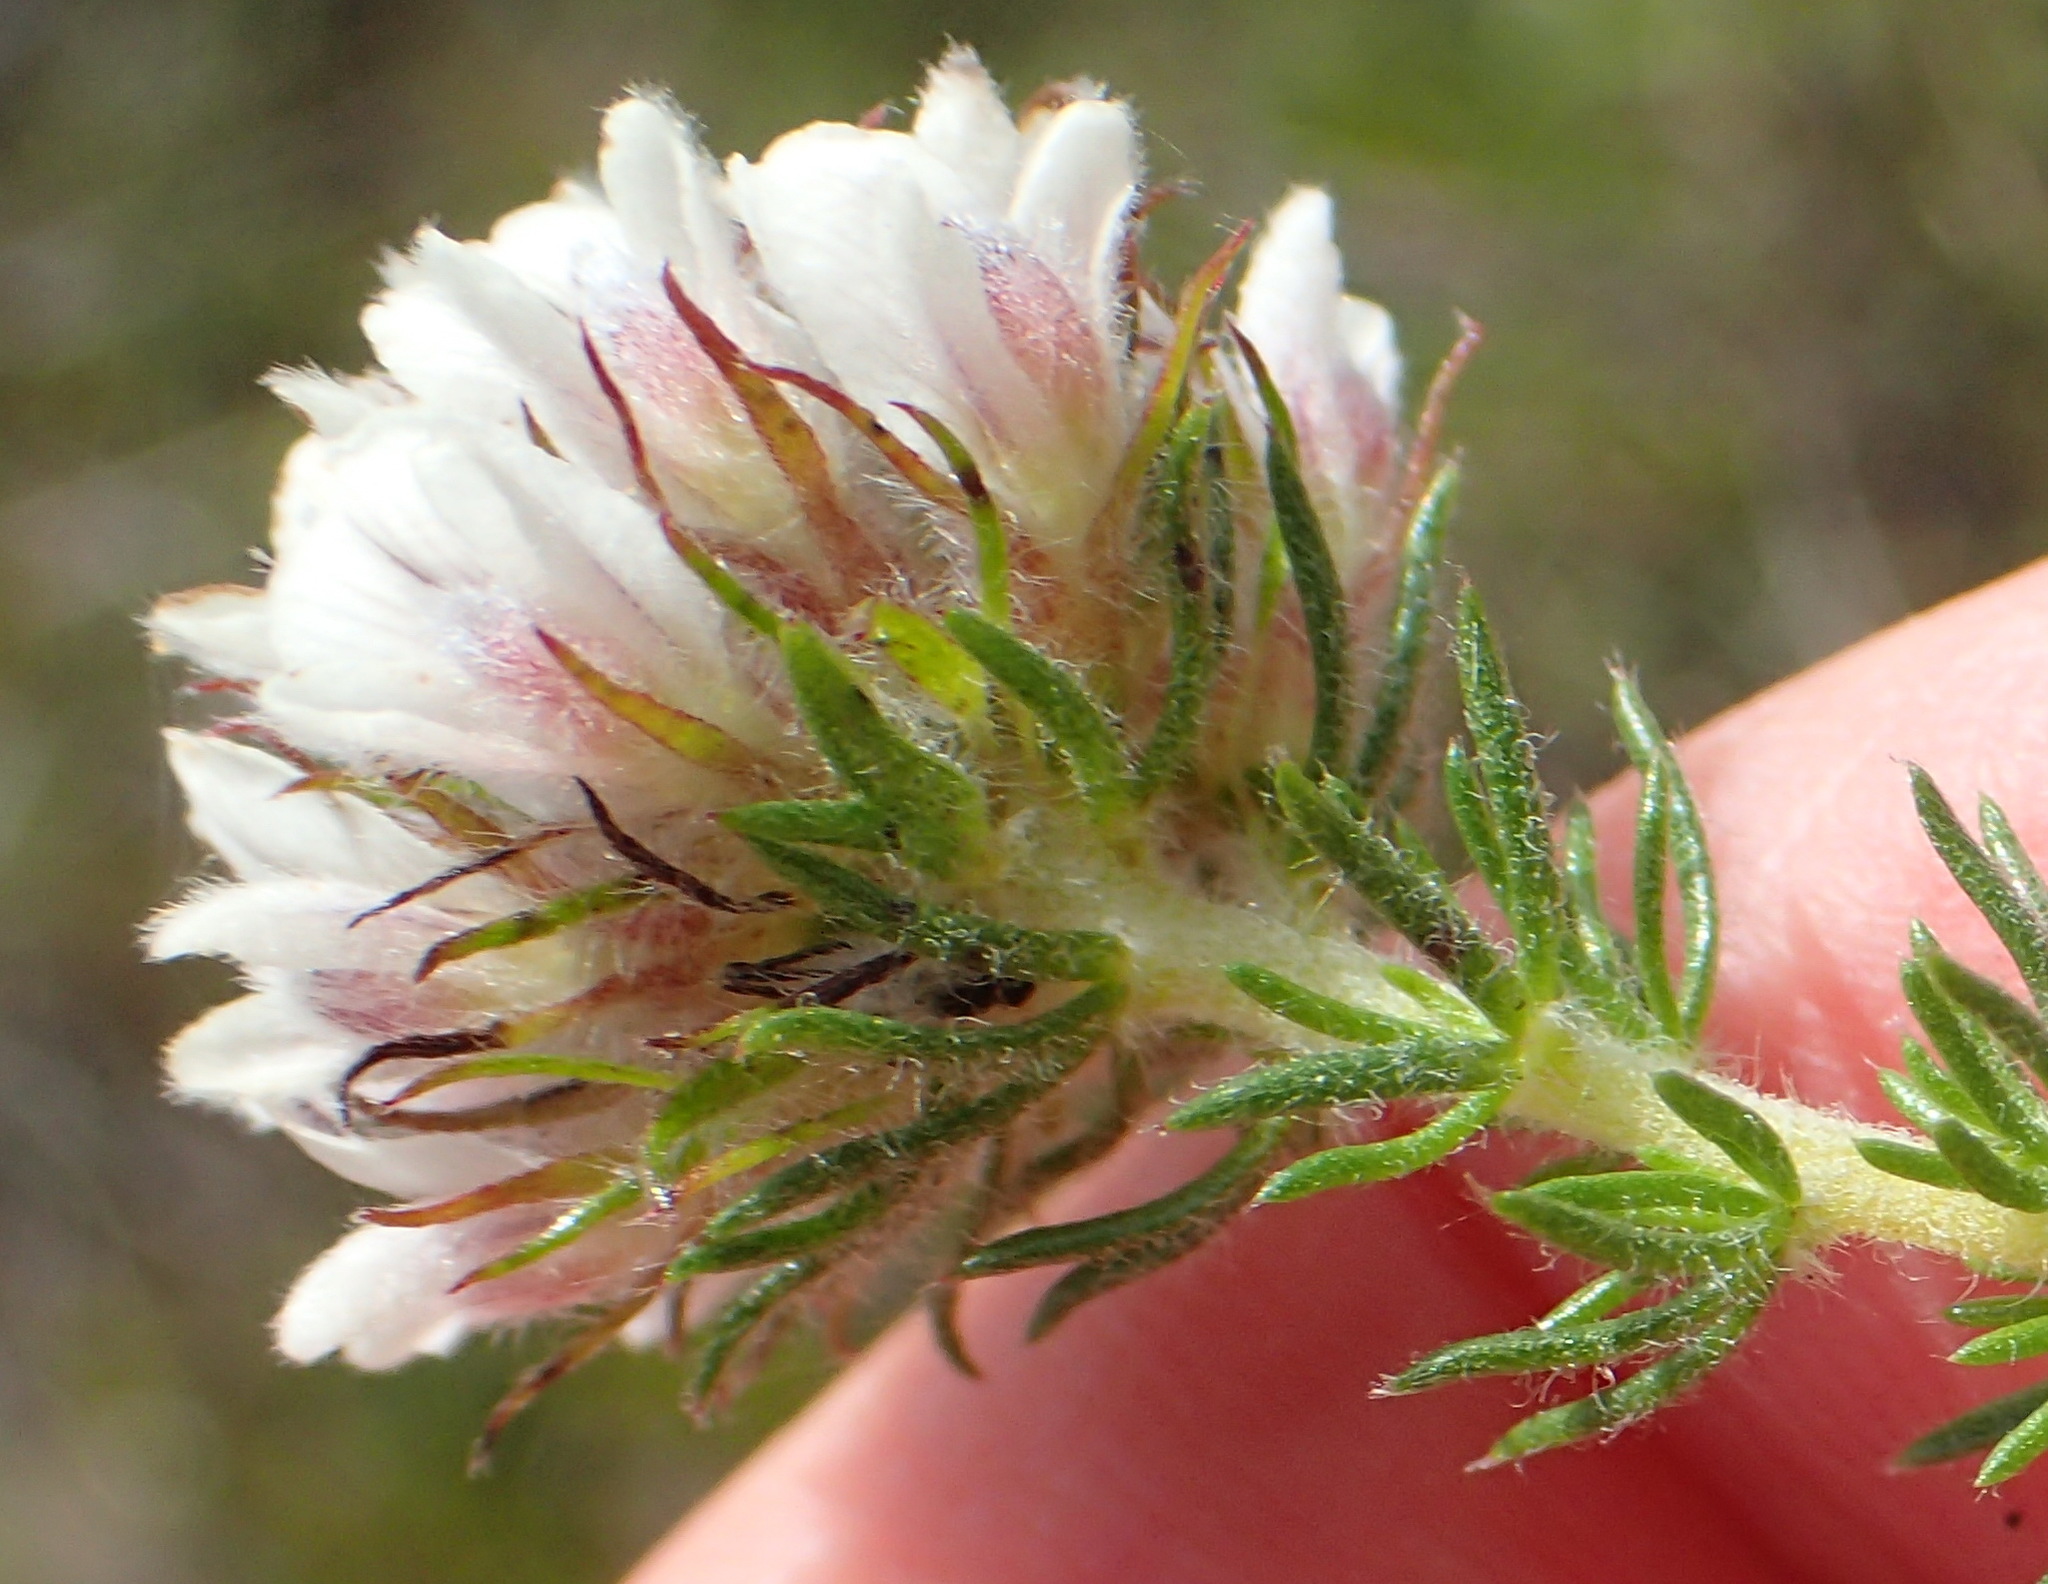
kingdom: Plantae
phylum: Tracheophyta
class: Magnoliopsida
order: Fabales
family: Fabaceae
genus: Aspalathus
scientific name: Aspalathus cerrhantha
